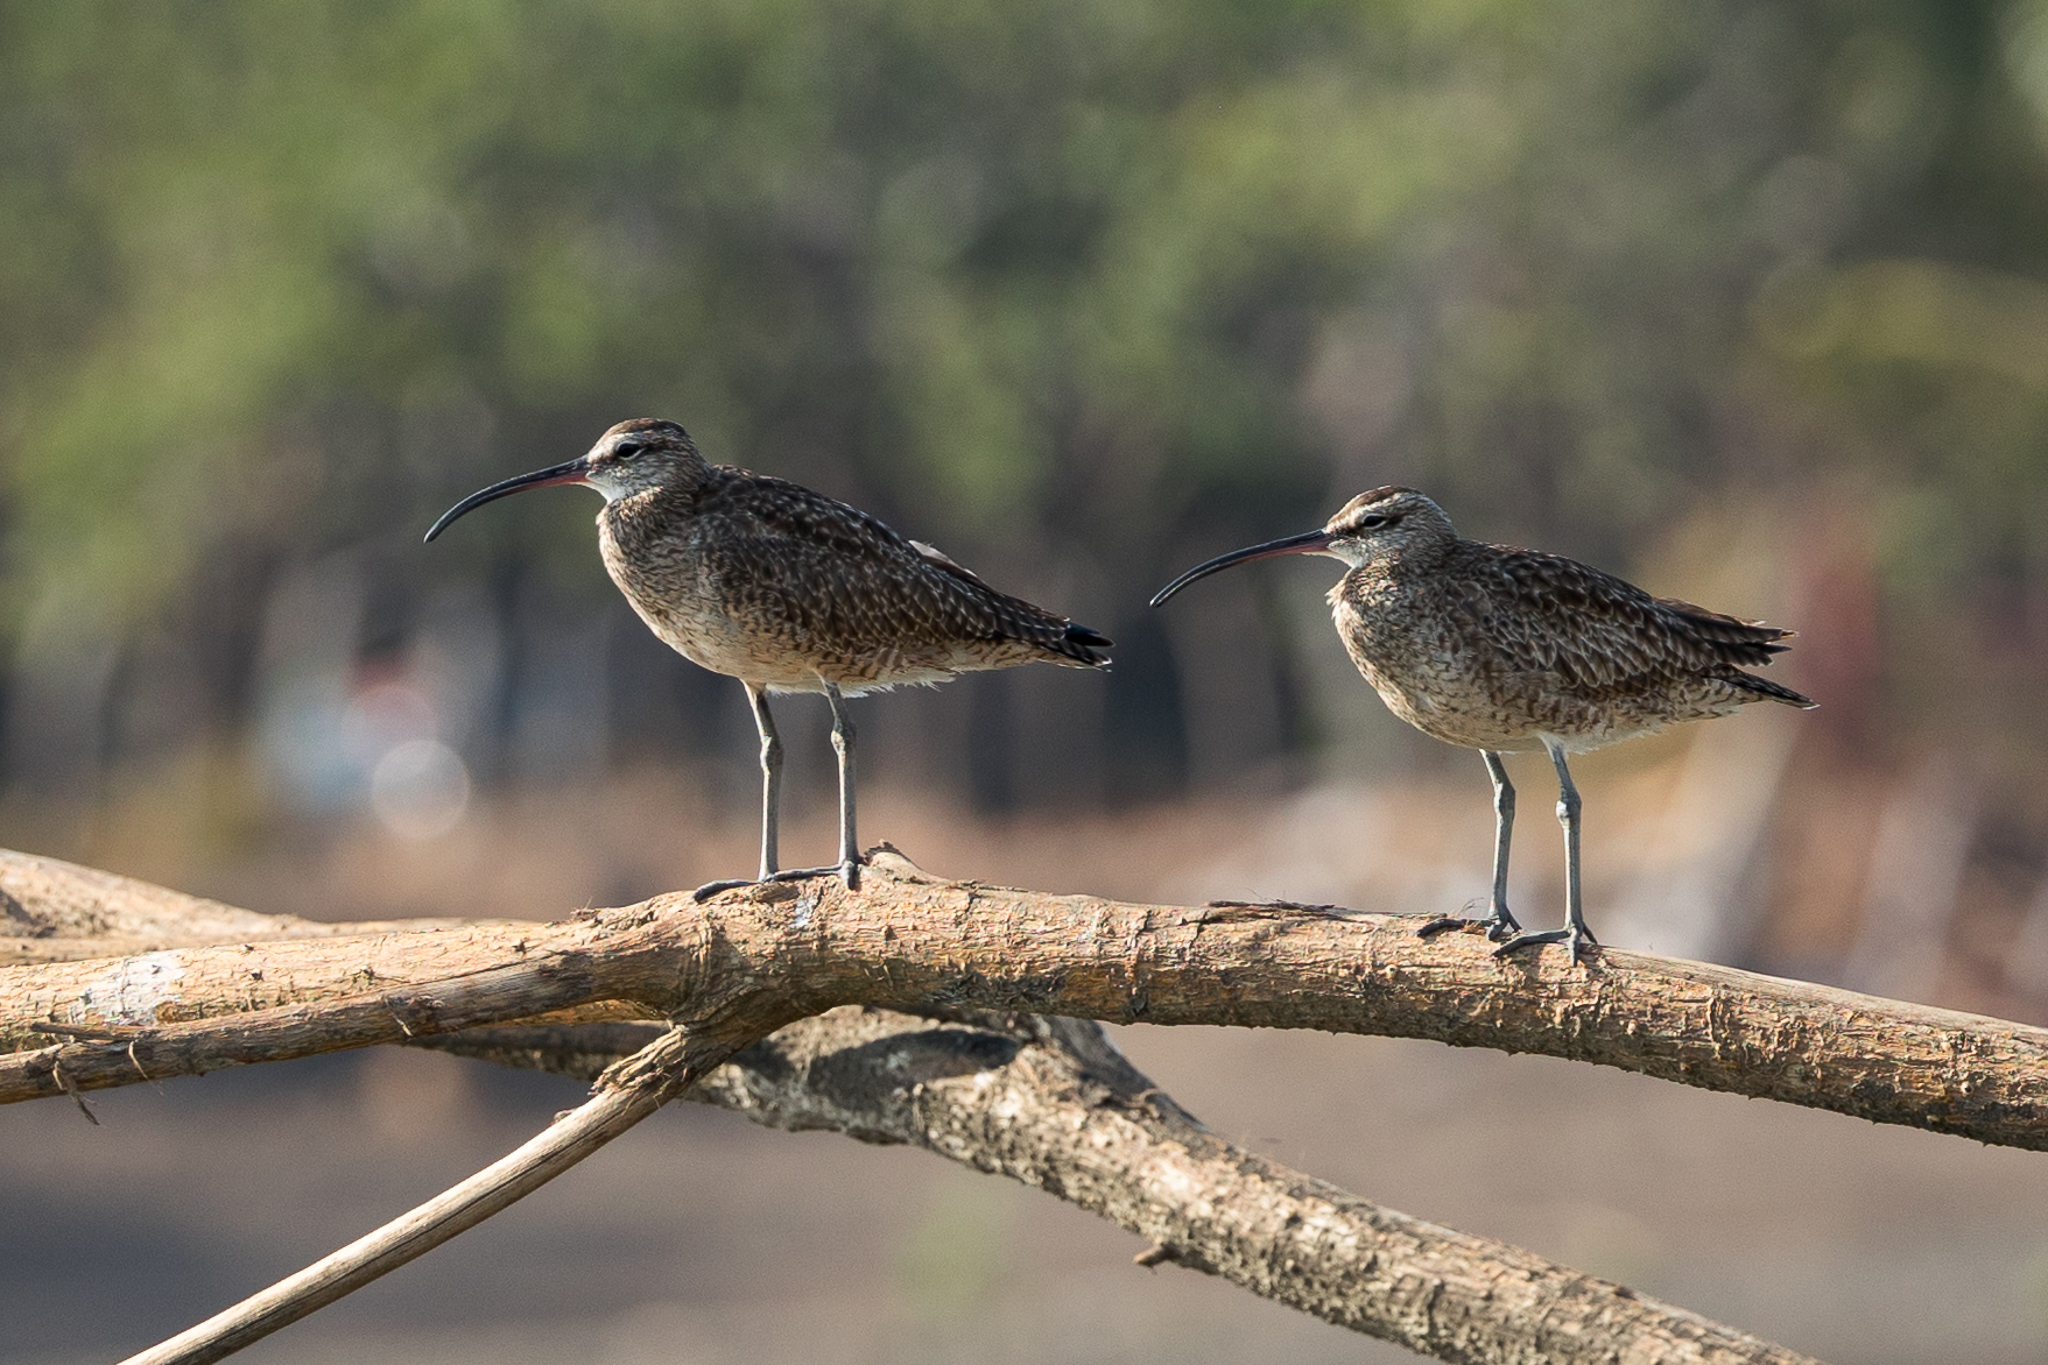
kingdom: Animalia
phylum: Chordata
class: Aves
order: Charadriiformes
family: Scolopacidae
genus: Numenius
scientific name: Numenius phaeopus
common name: Whimbrel
